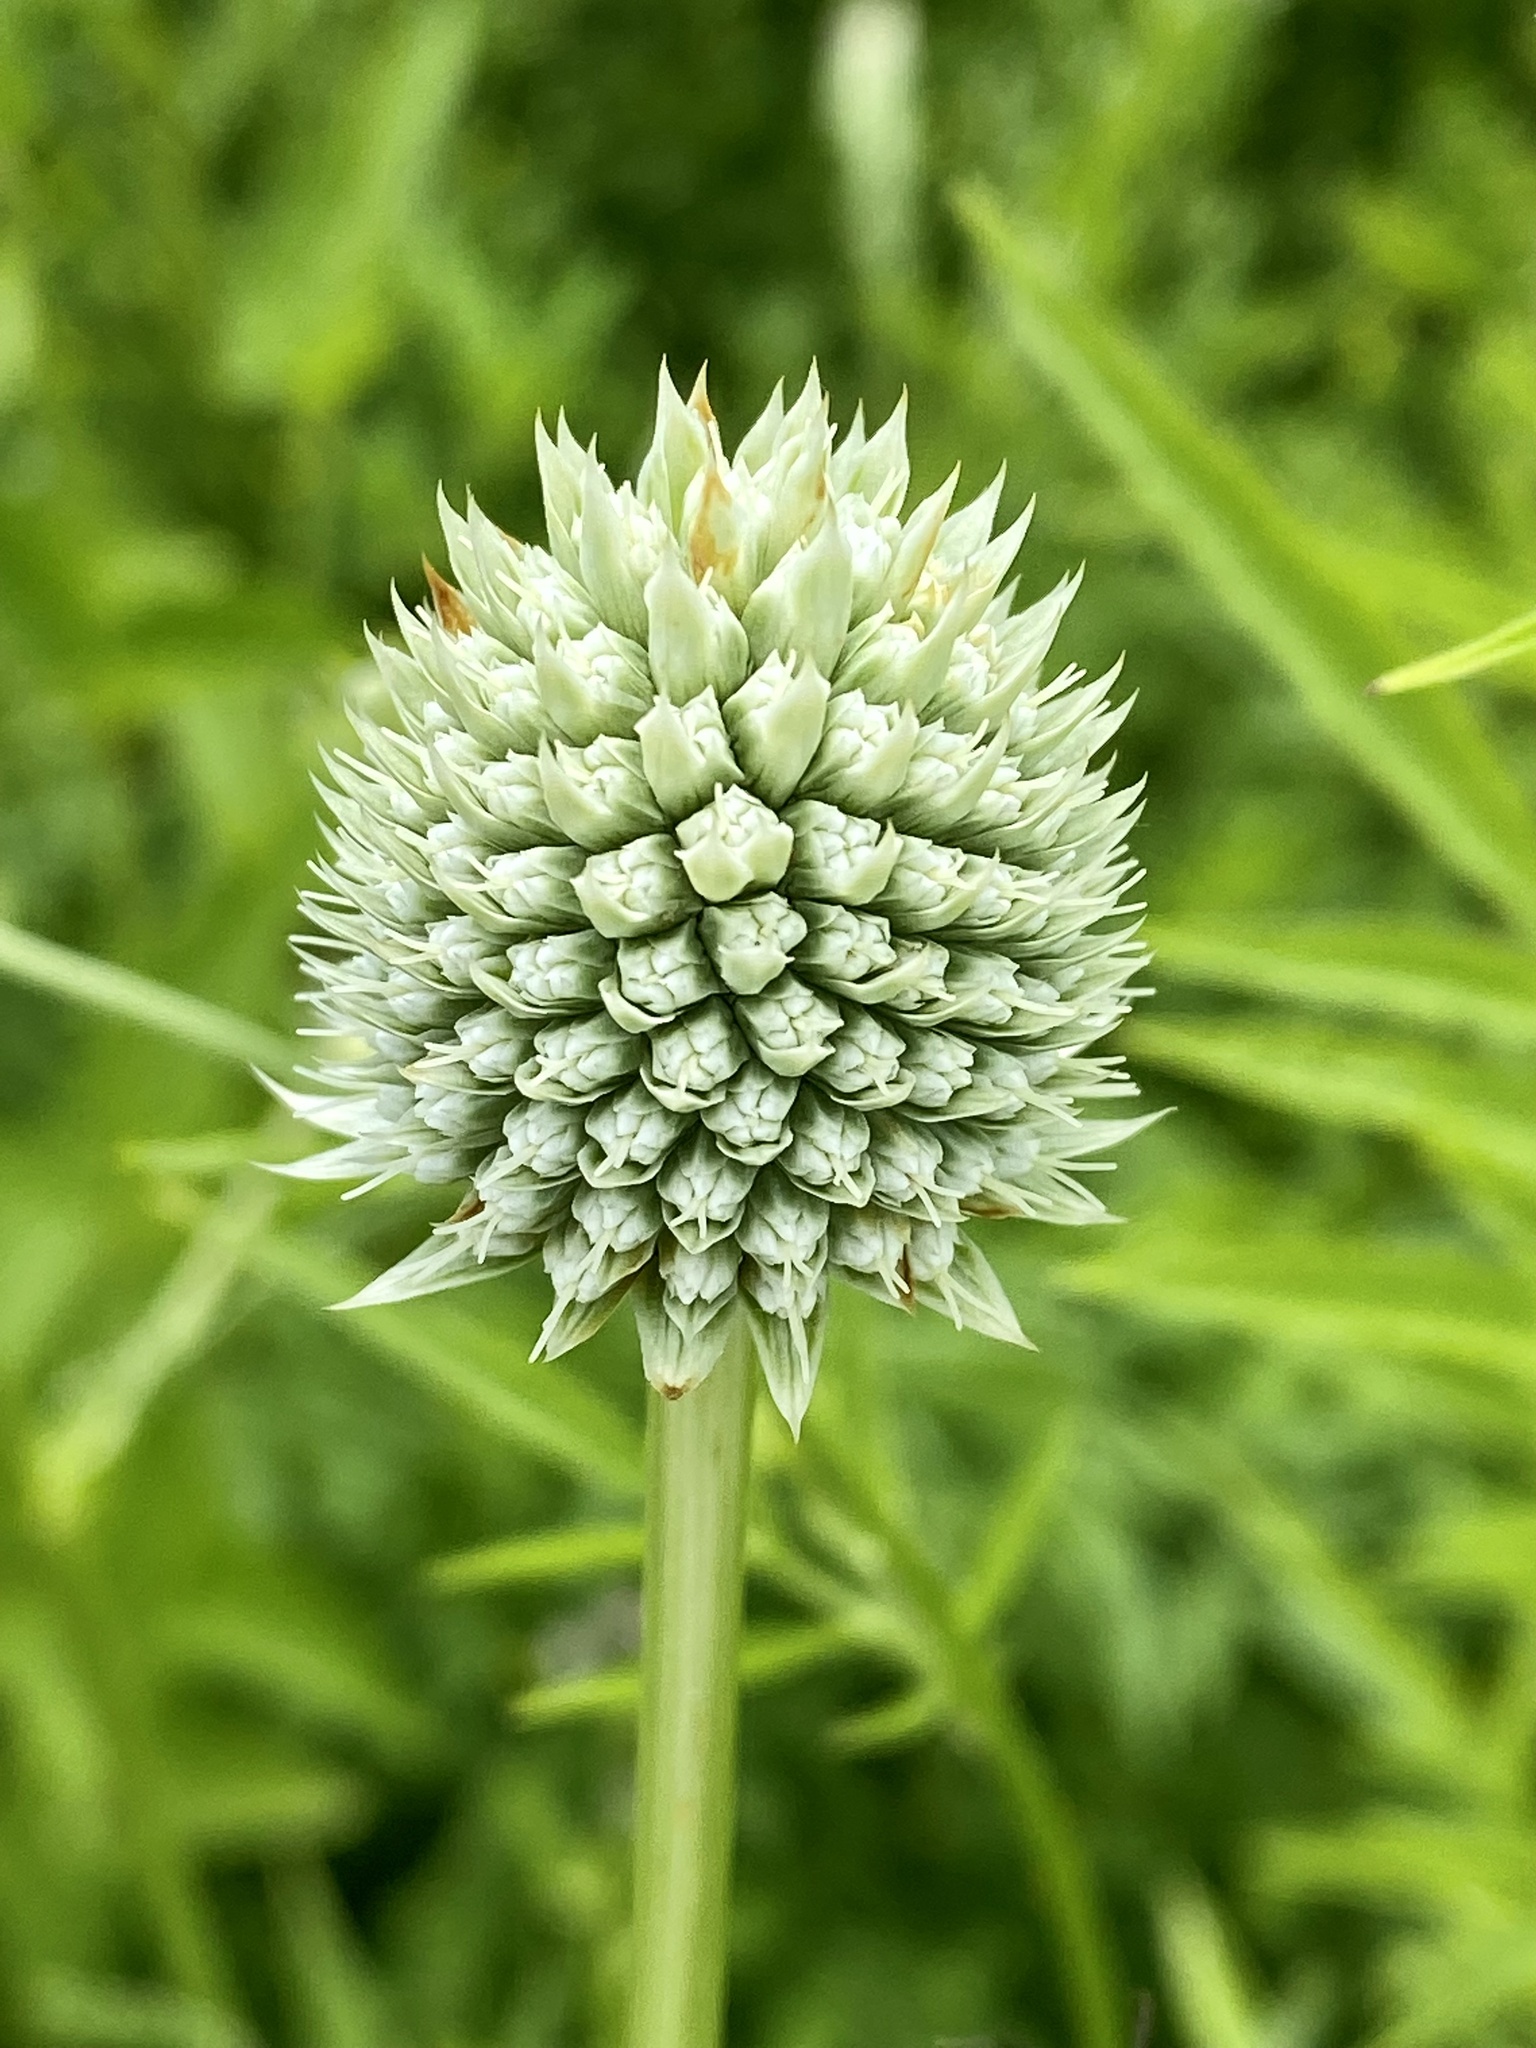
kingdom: Plantae
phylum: Tracheophyta
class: Magnoliopsida
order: Apiales
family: Apiaceae
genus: Eryngium
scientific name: Eryngium yuccifolium
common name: Button eryngo
